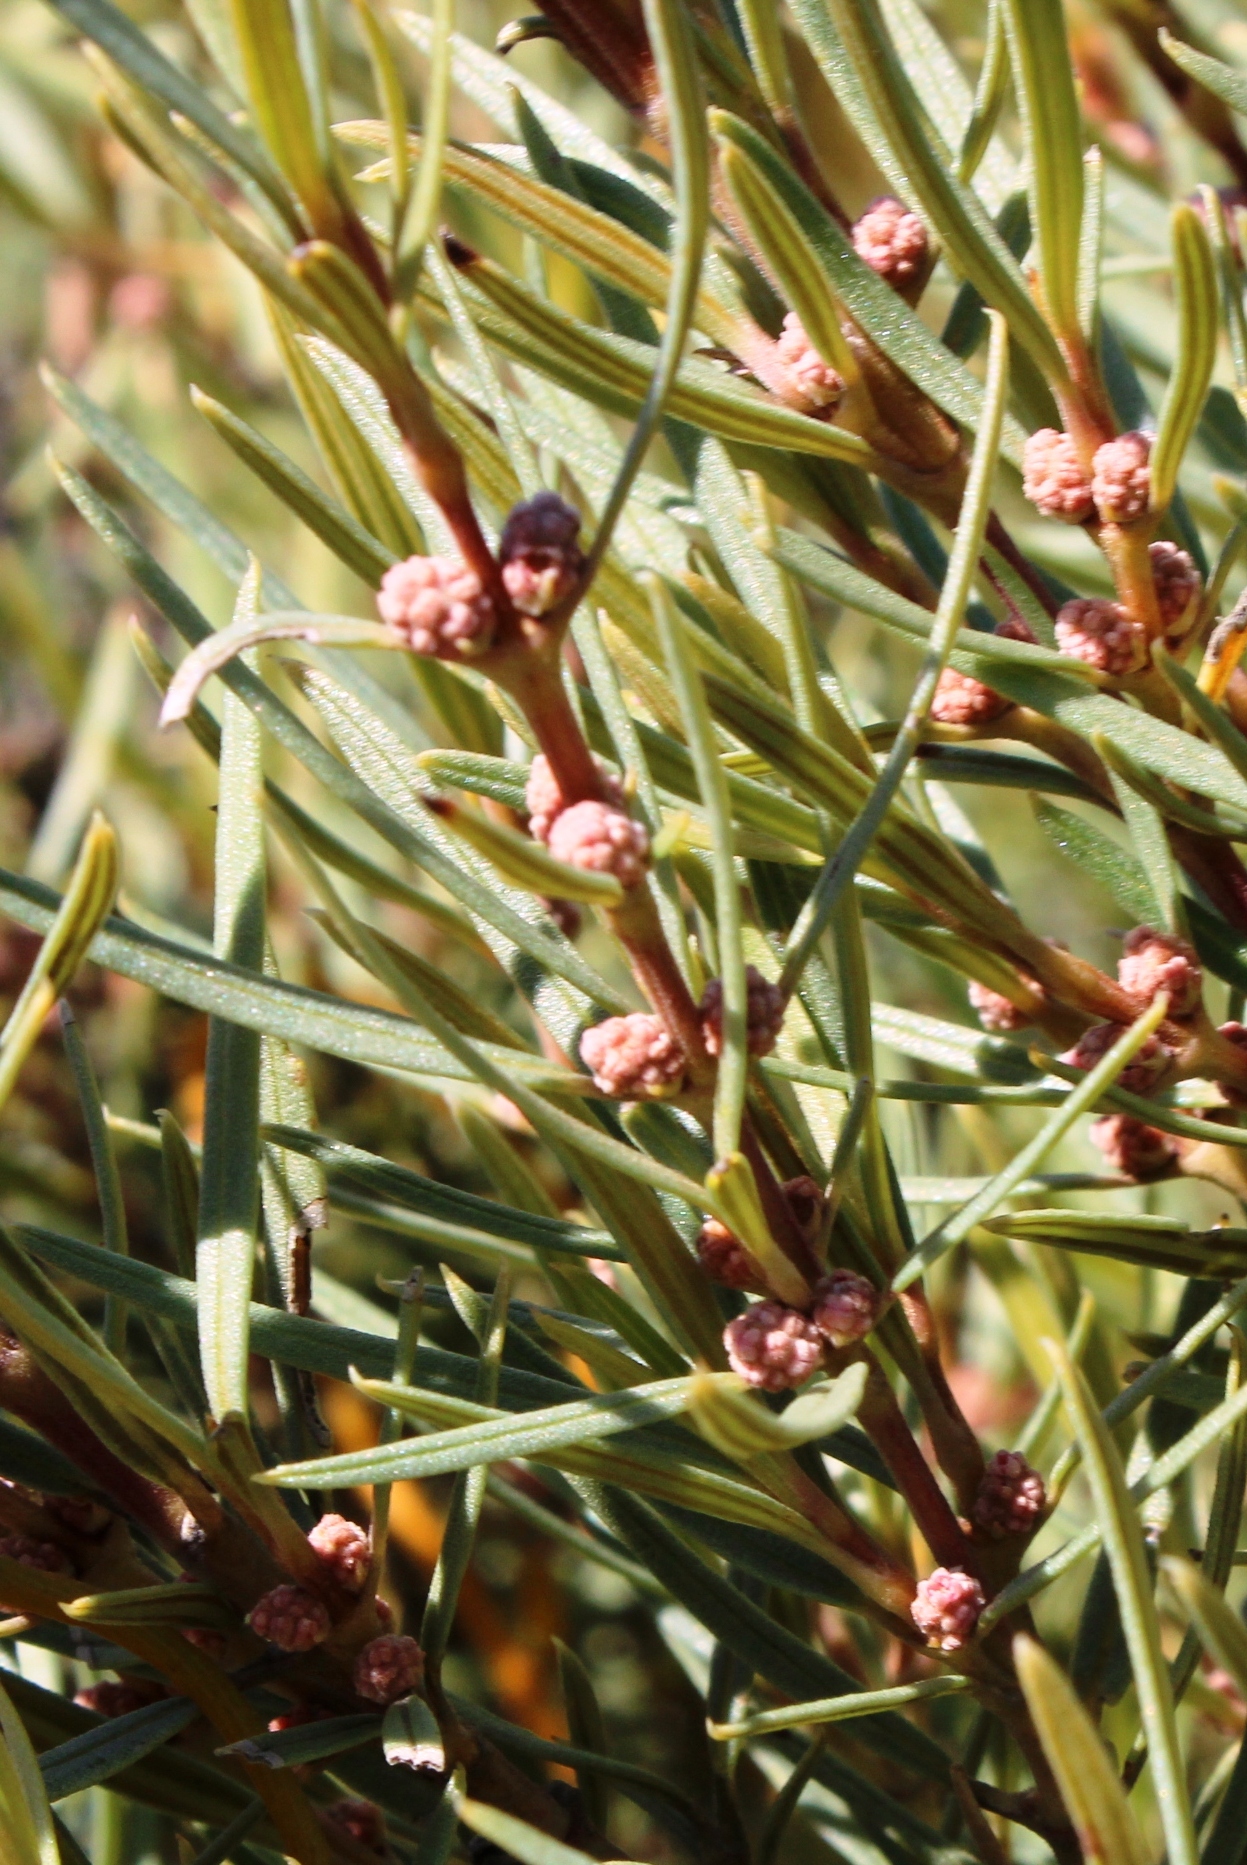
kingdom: Plantae
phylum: Tracheophyta
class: Magnoliopsida
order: Cornales
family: Grubbiaceae
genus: Grubbia
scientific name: Grubbia tomentosa
